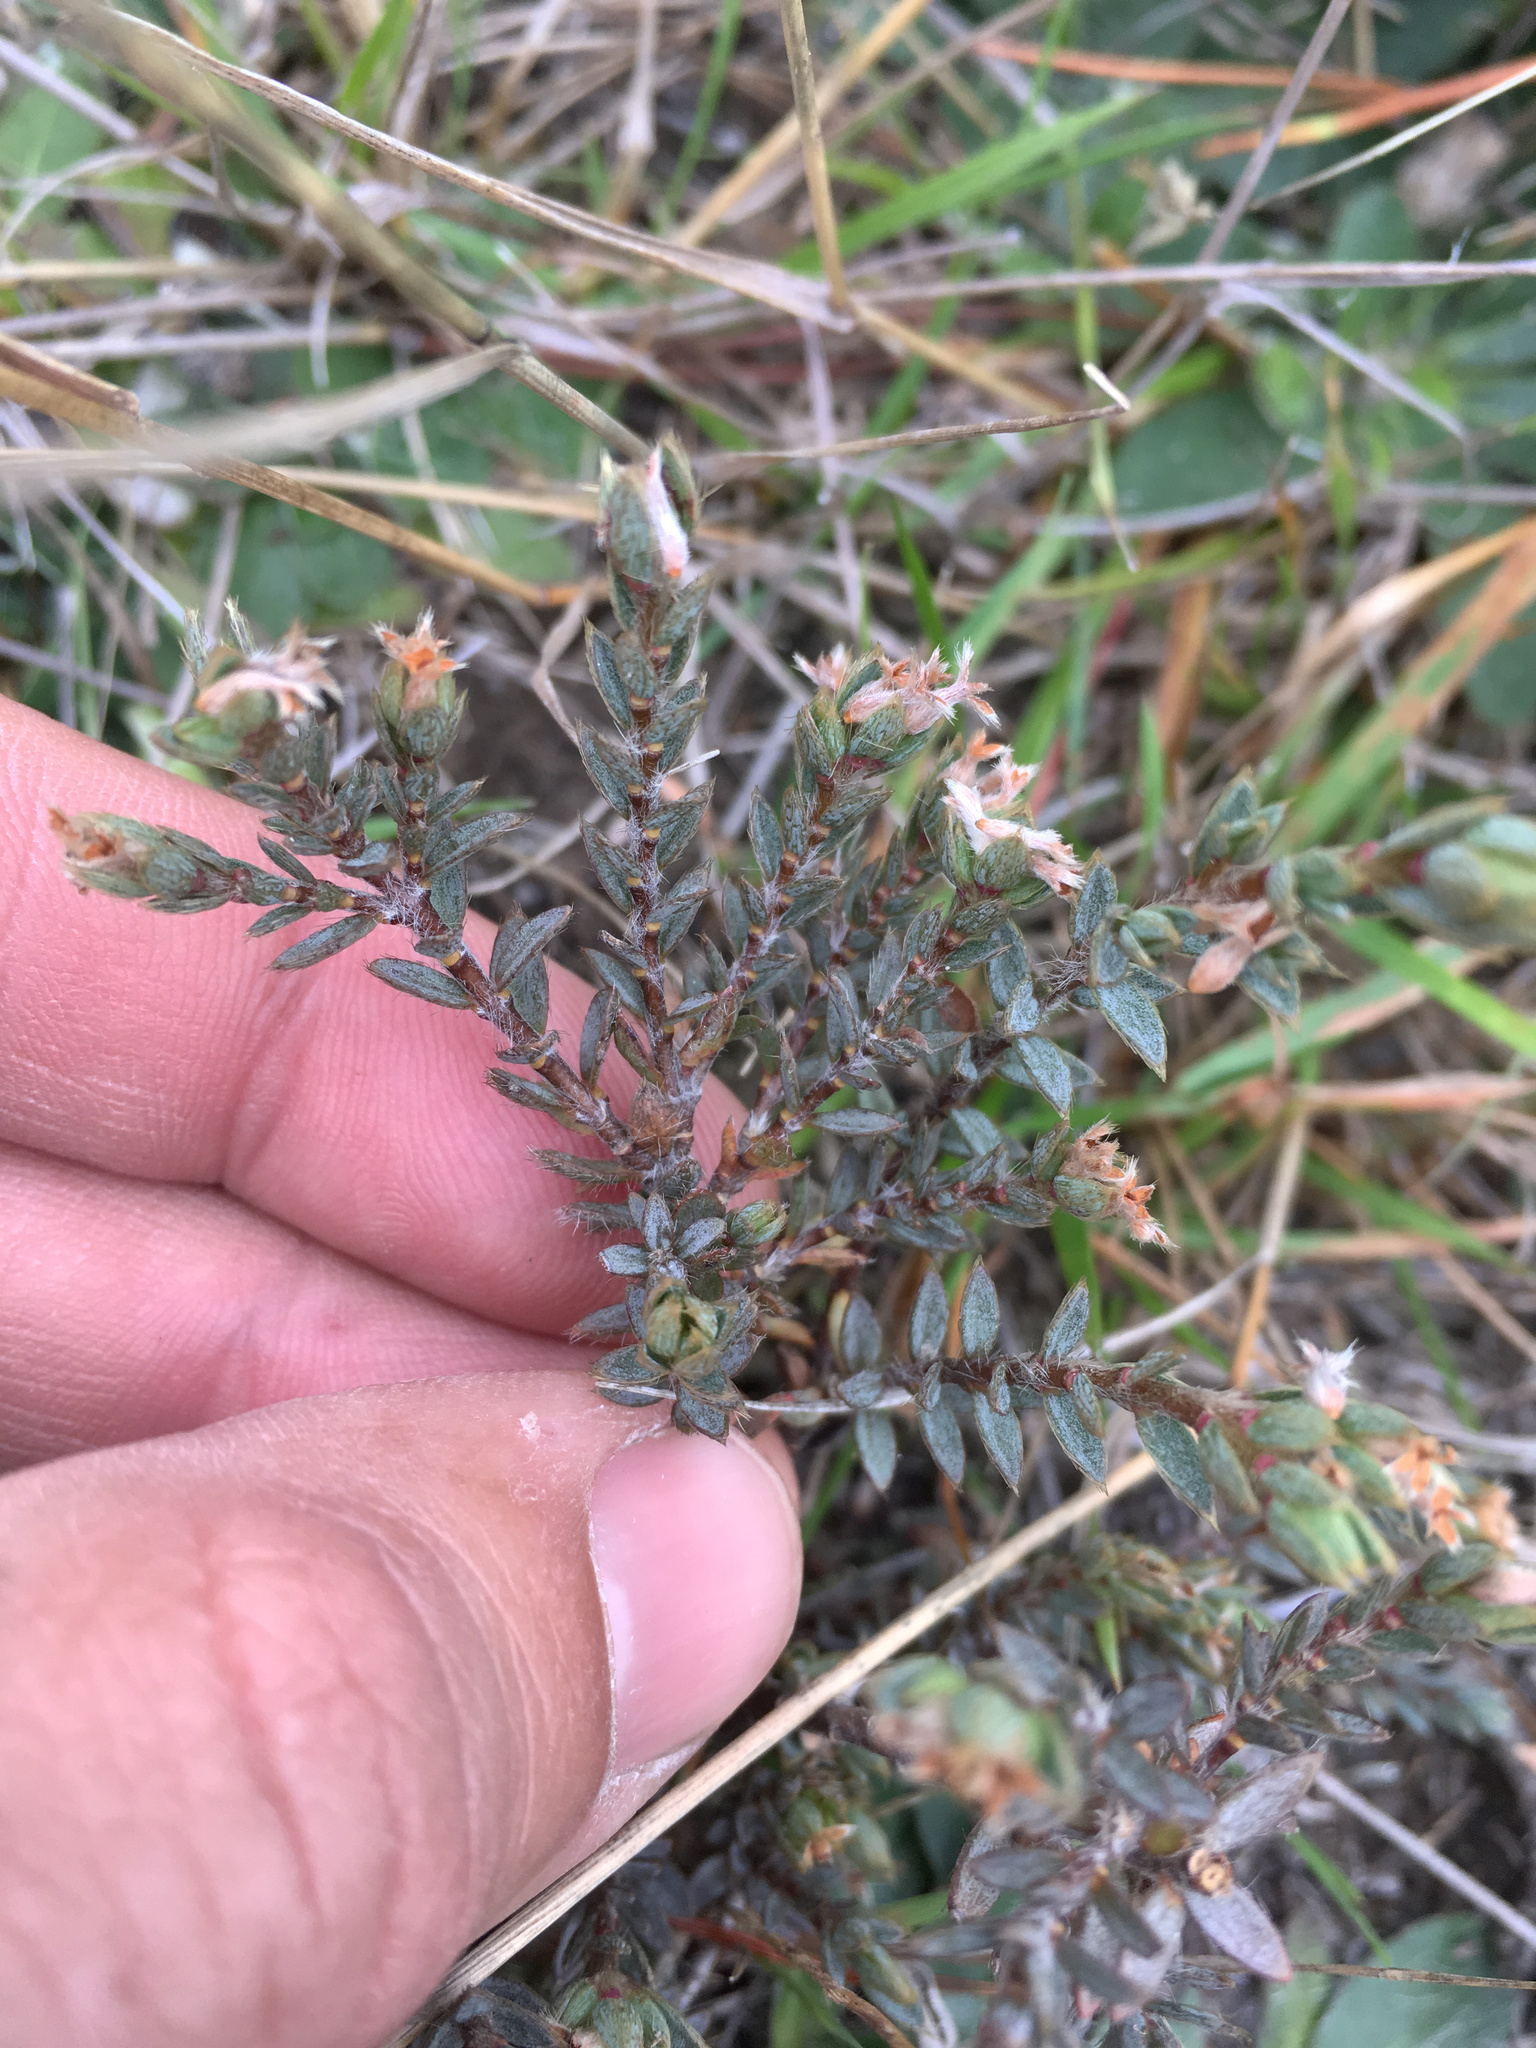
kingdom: Plantae
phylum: Tracheophyta
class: Magnoliopsida
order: Malvales
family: Thymelaeaceae
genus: Pimelea
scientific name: Pimelea oreophila
